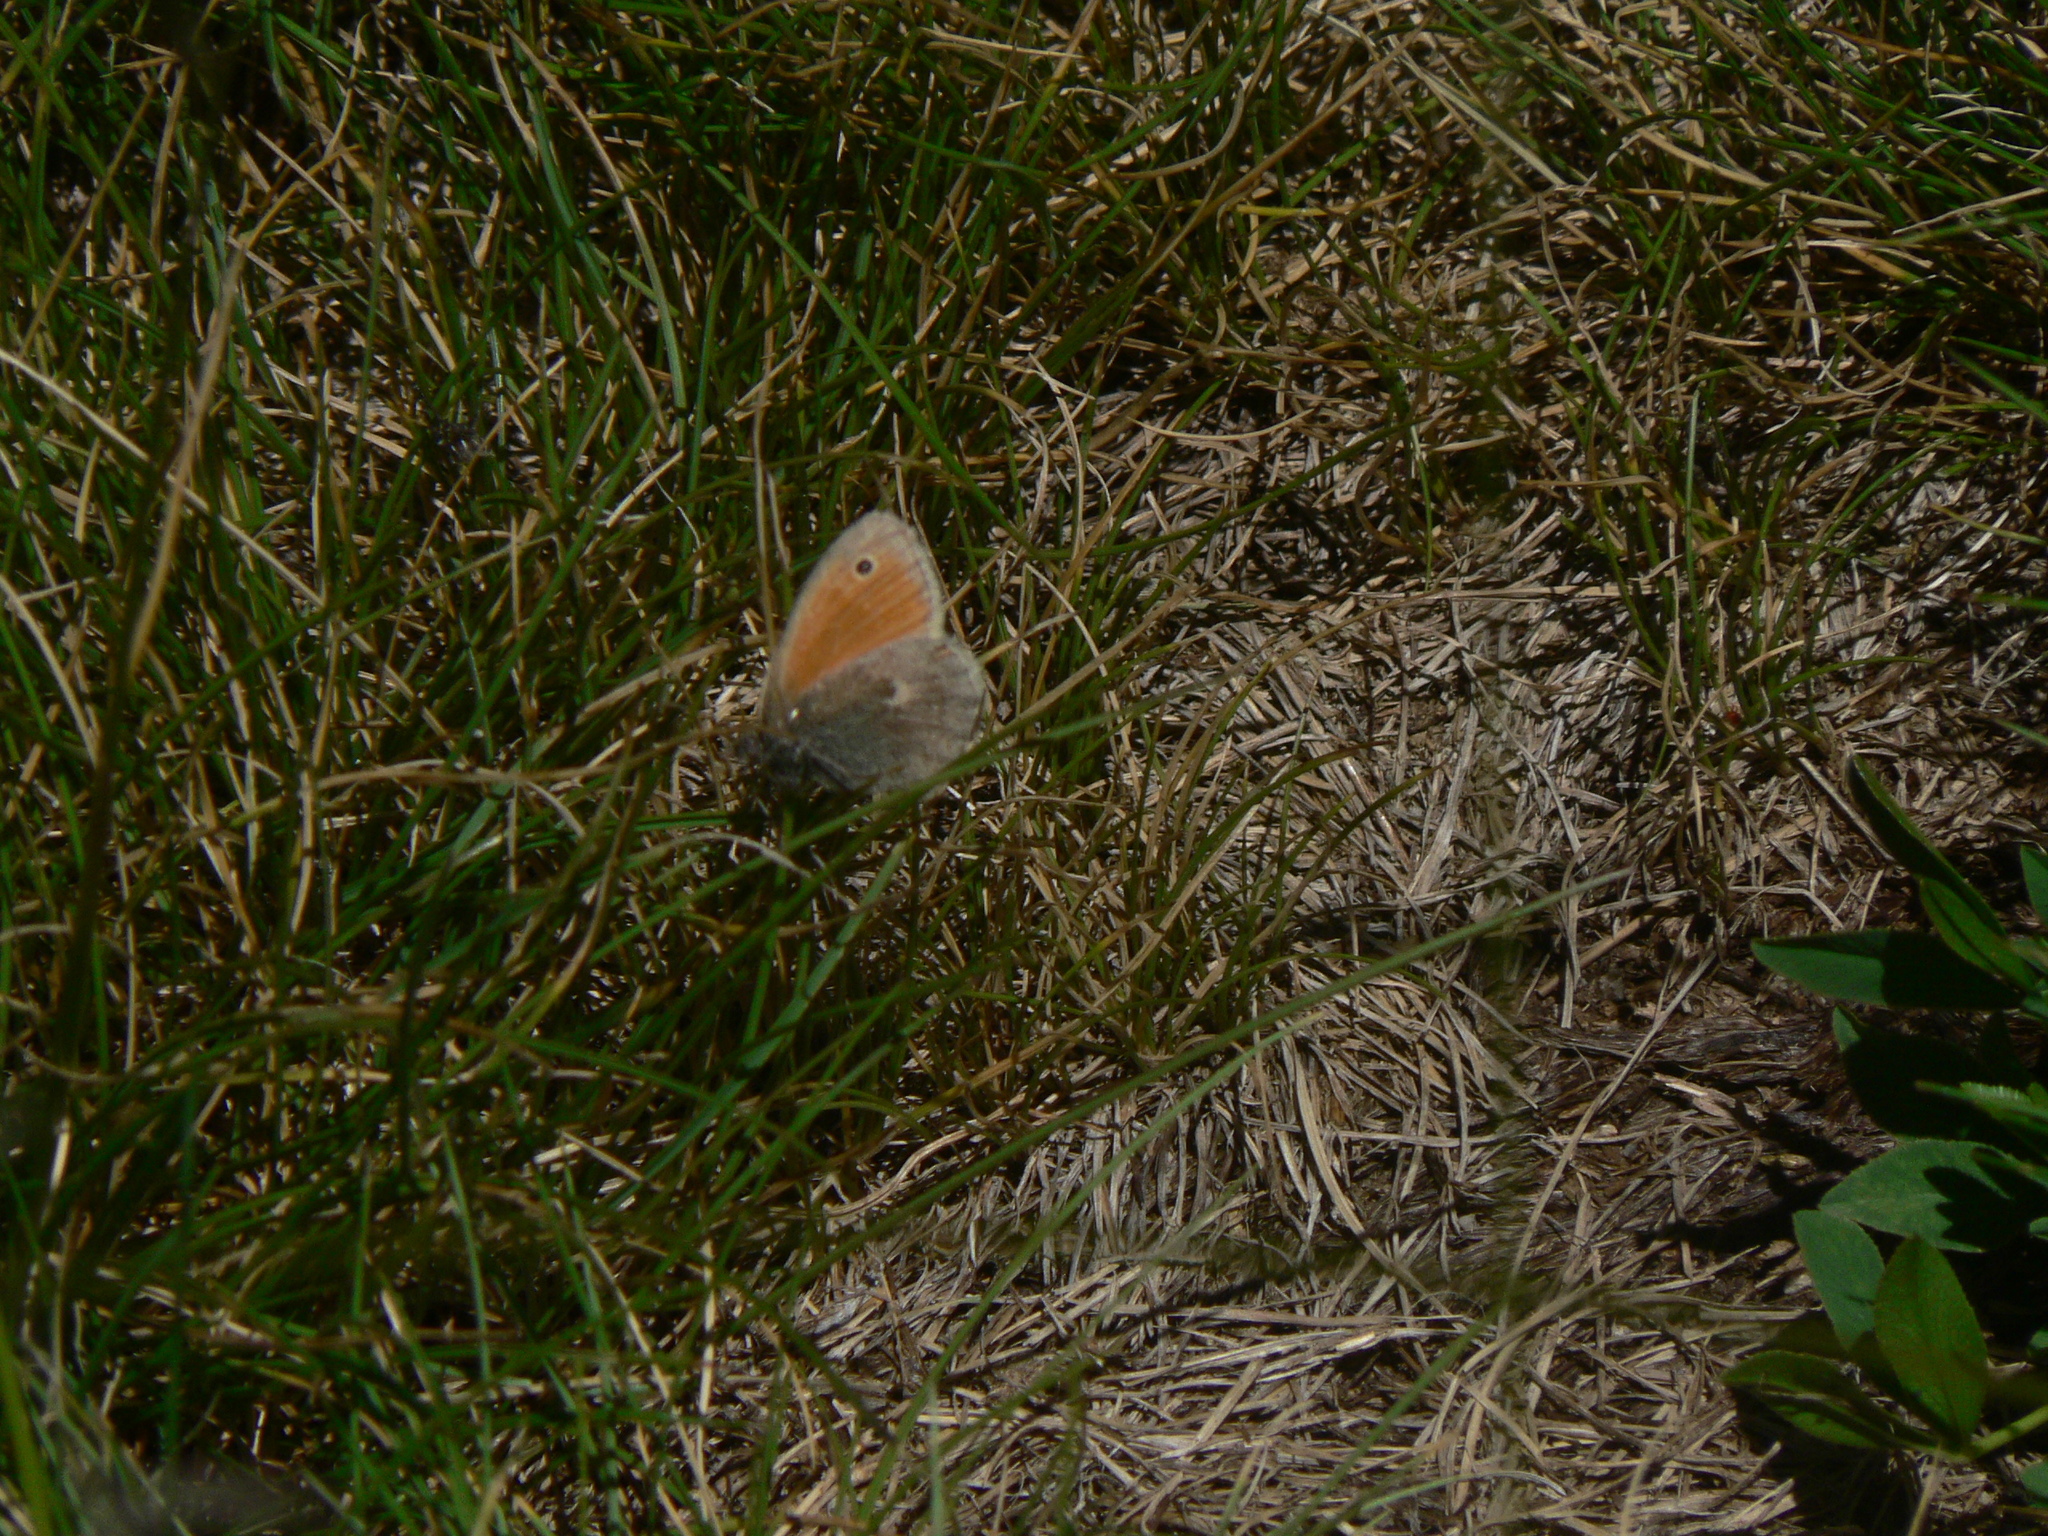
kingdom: Animalia
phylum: Arthropoda
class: Insecta
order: Lepidoptera
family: Nymphalidae
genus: Coenonympha
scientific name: Coenonympha pamphilus
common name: Small heath
